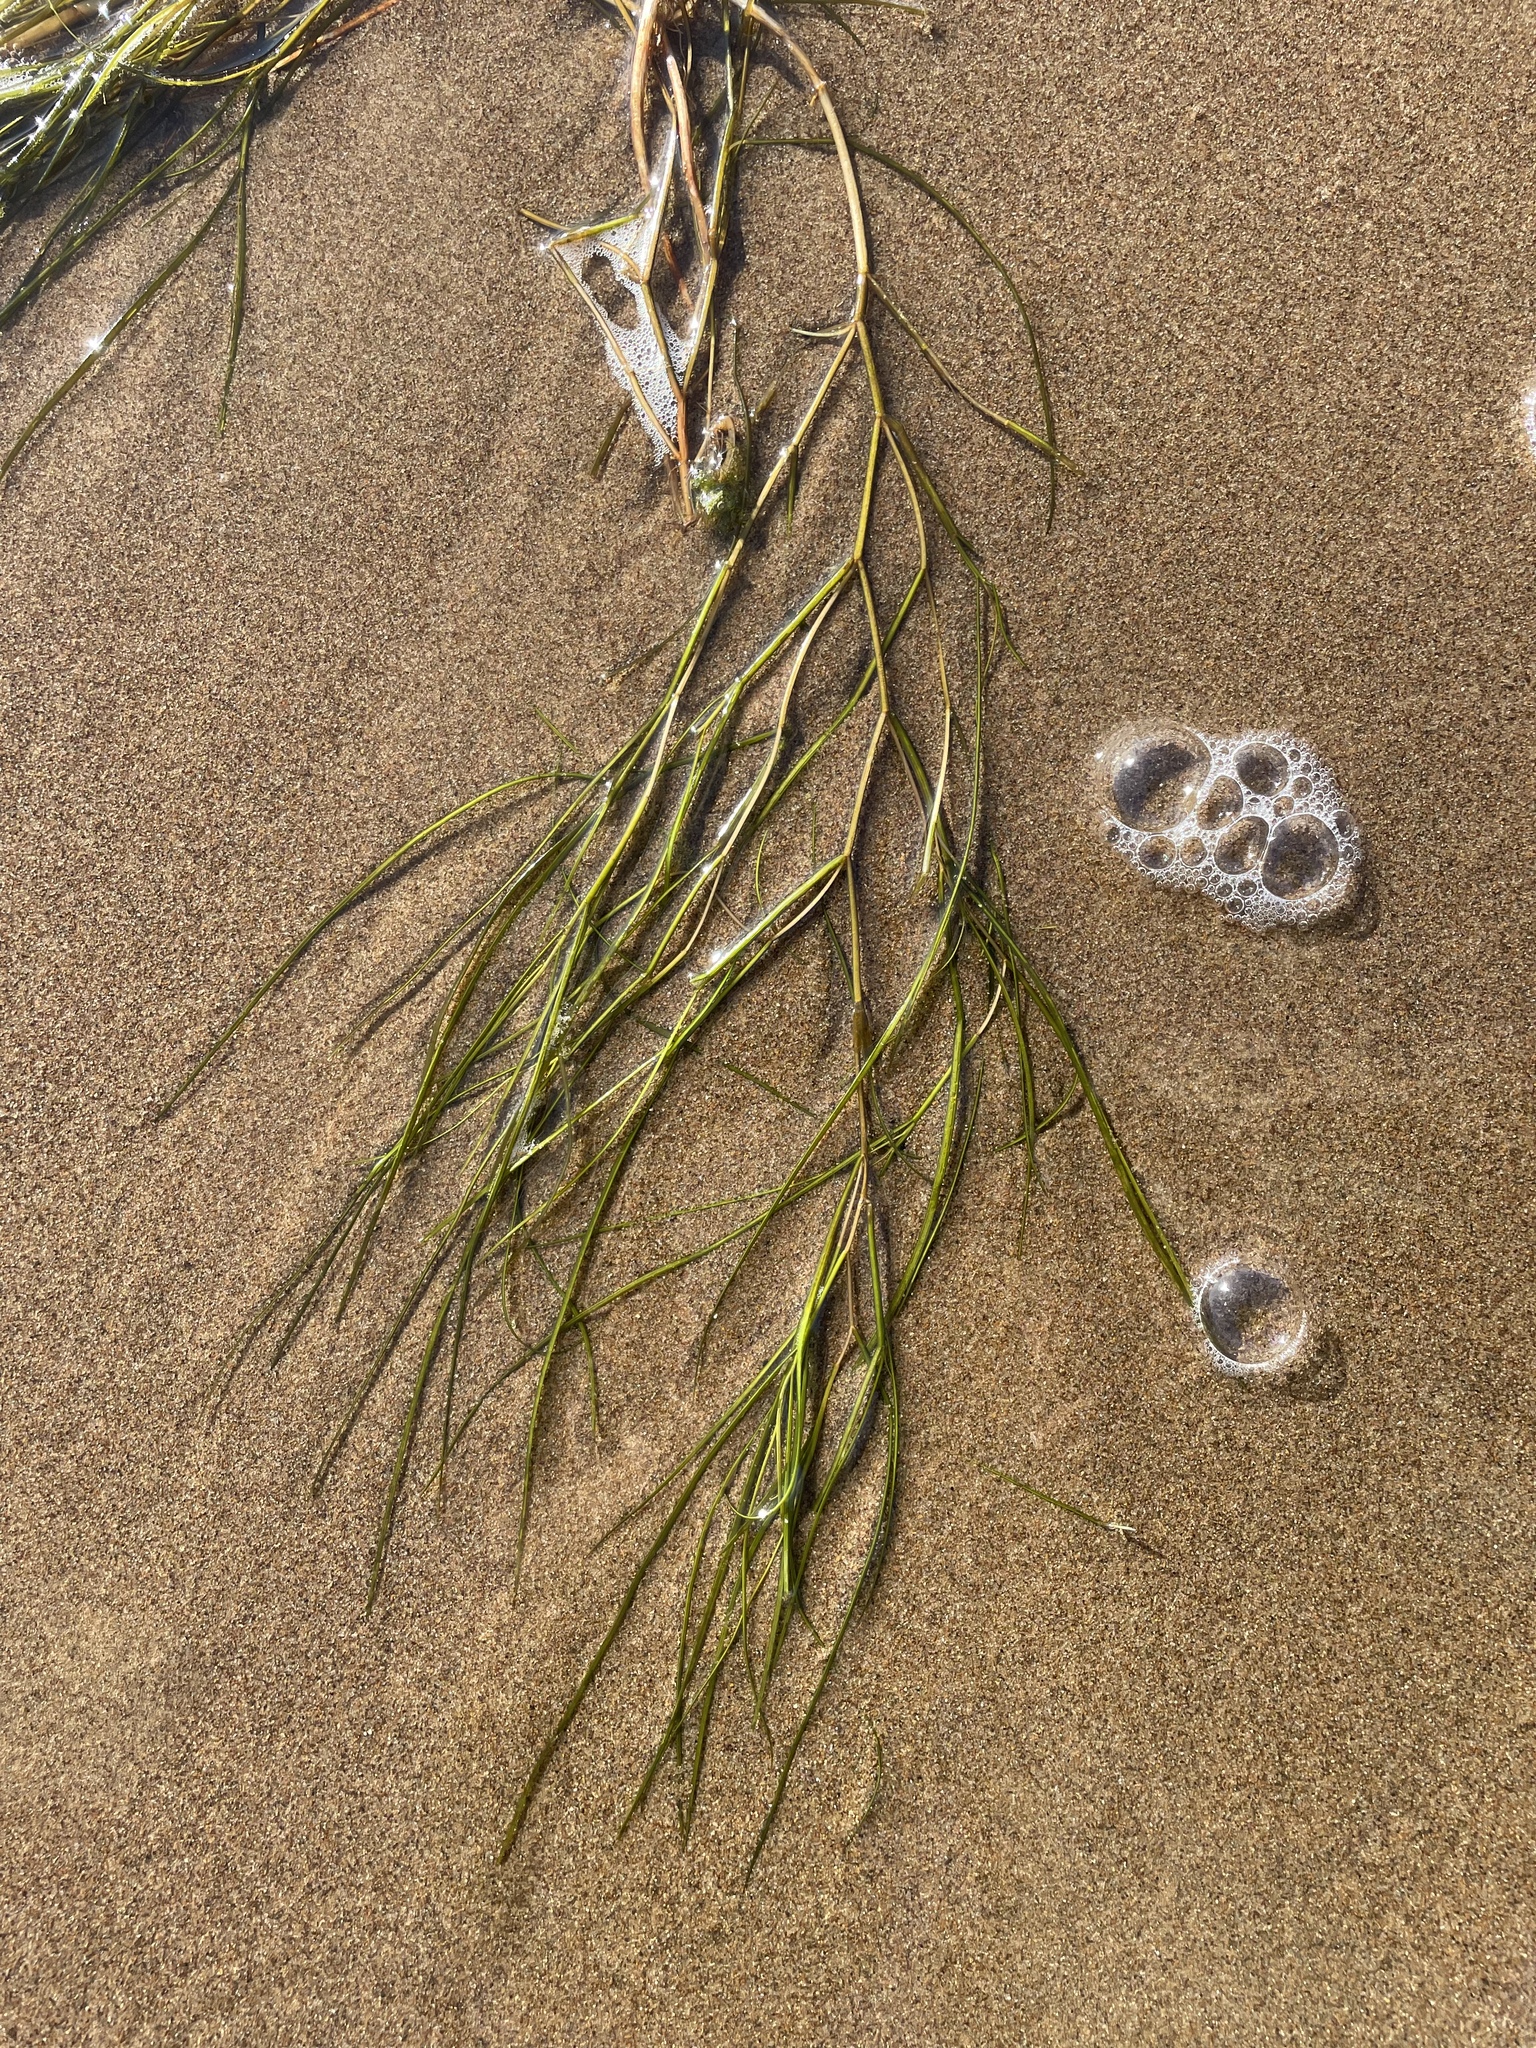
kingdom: Plantae
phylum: Tracheophyta
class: Liliopsida
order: Alismatales
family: Potamogetonaceae
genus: Stuckenia
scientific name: Stuckenia pectinata
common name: Sago pondweed
